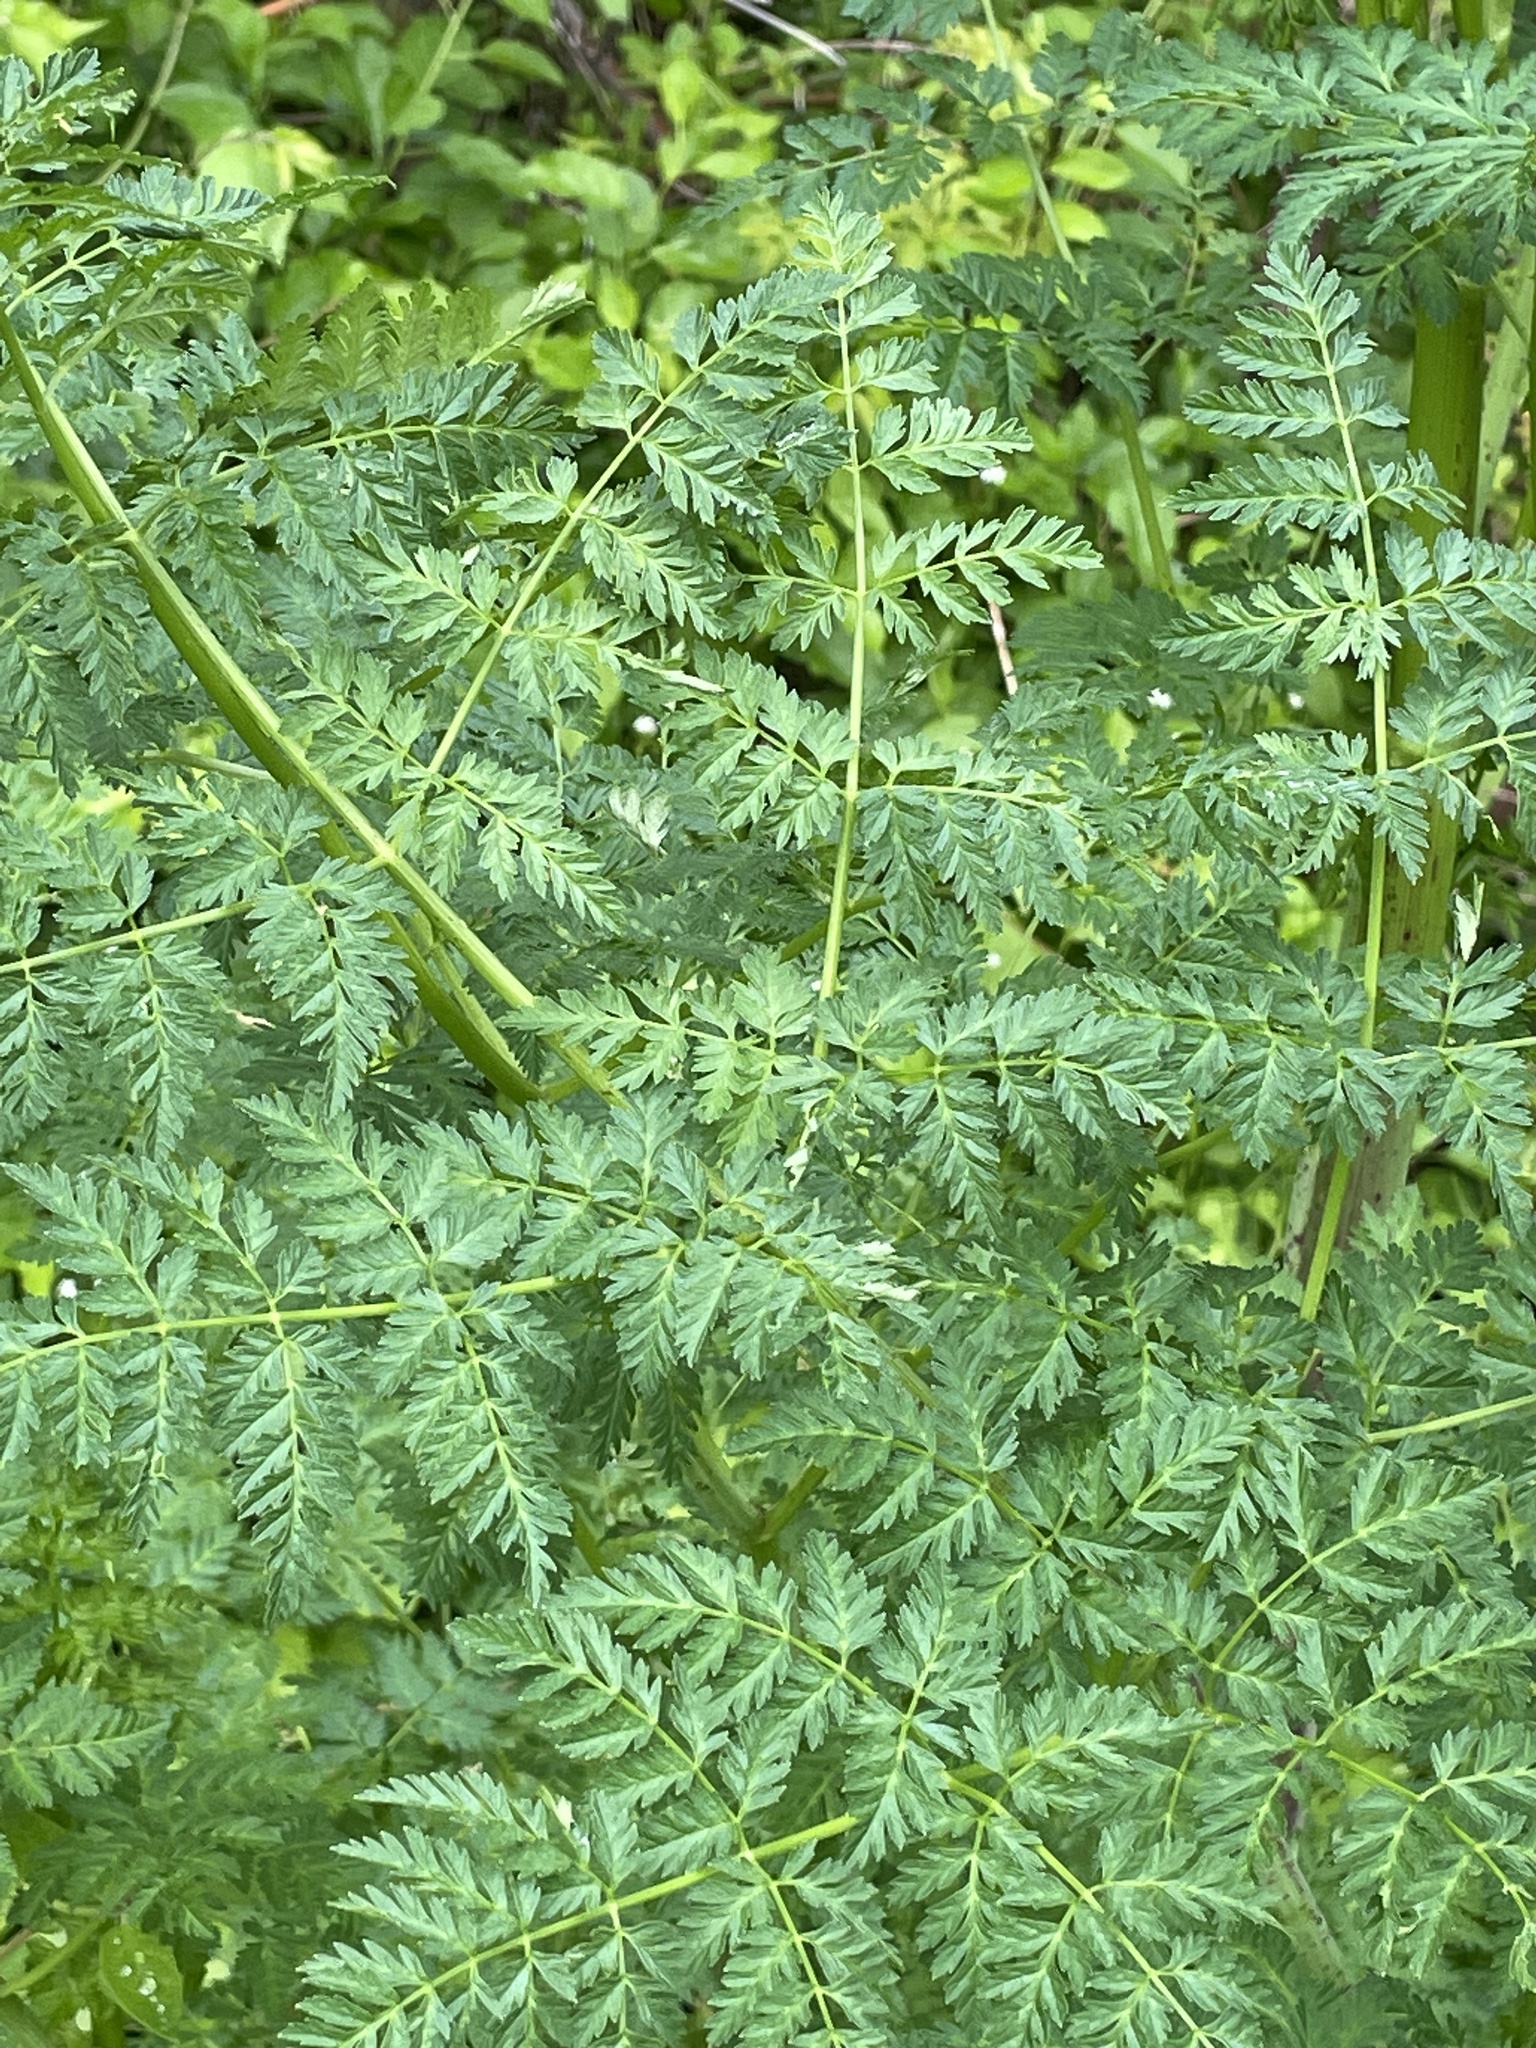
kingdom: Plantae
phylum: Tracheophyta
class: Magnoliopsida
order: Apiales
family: Apiaceae
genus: Conium
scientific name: Conium maculatum
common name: Hemlock
